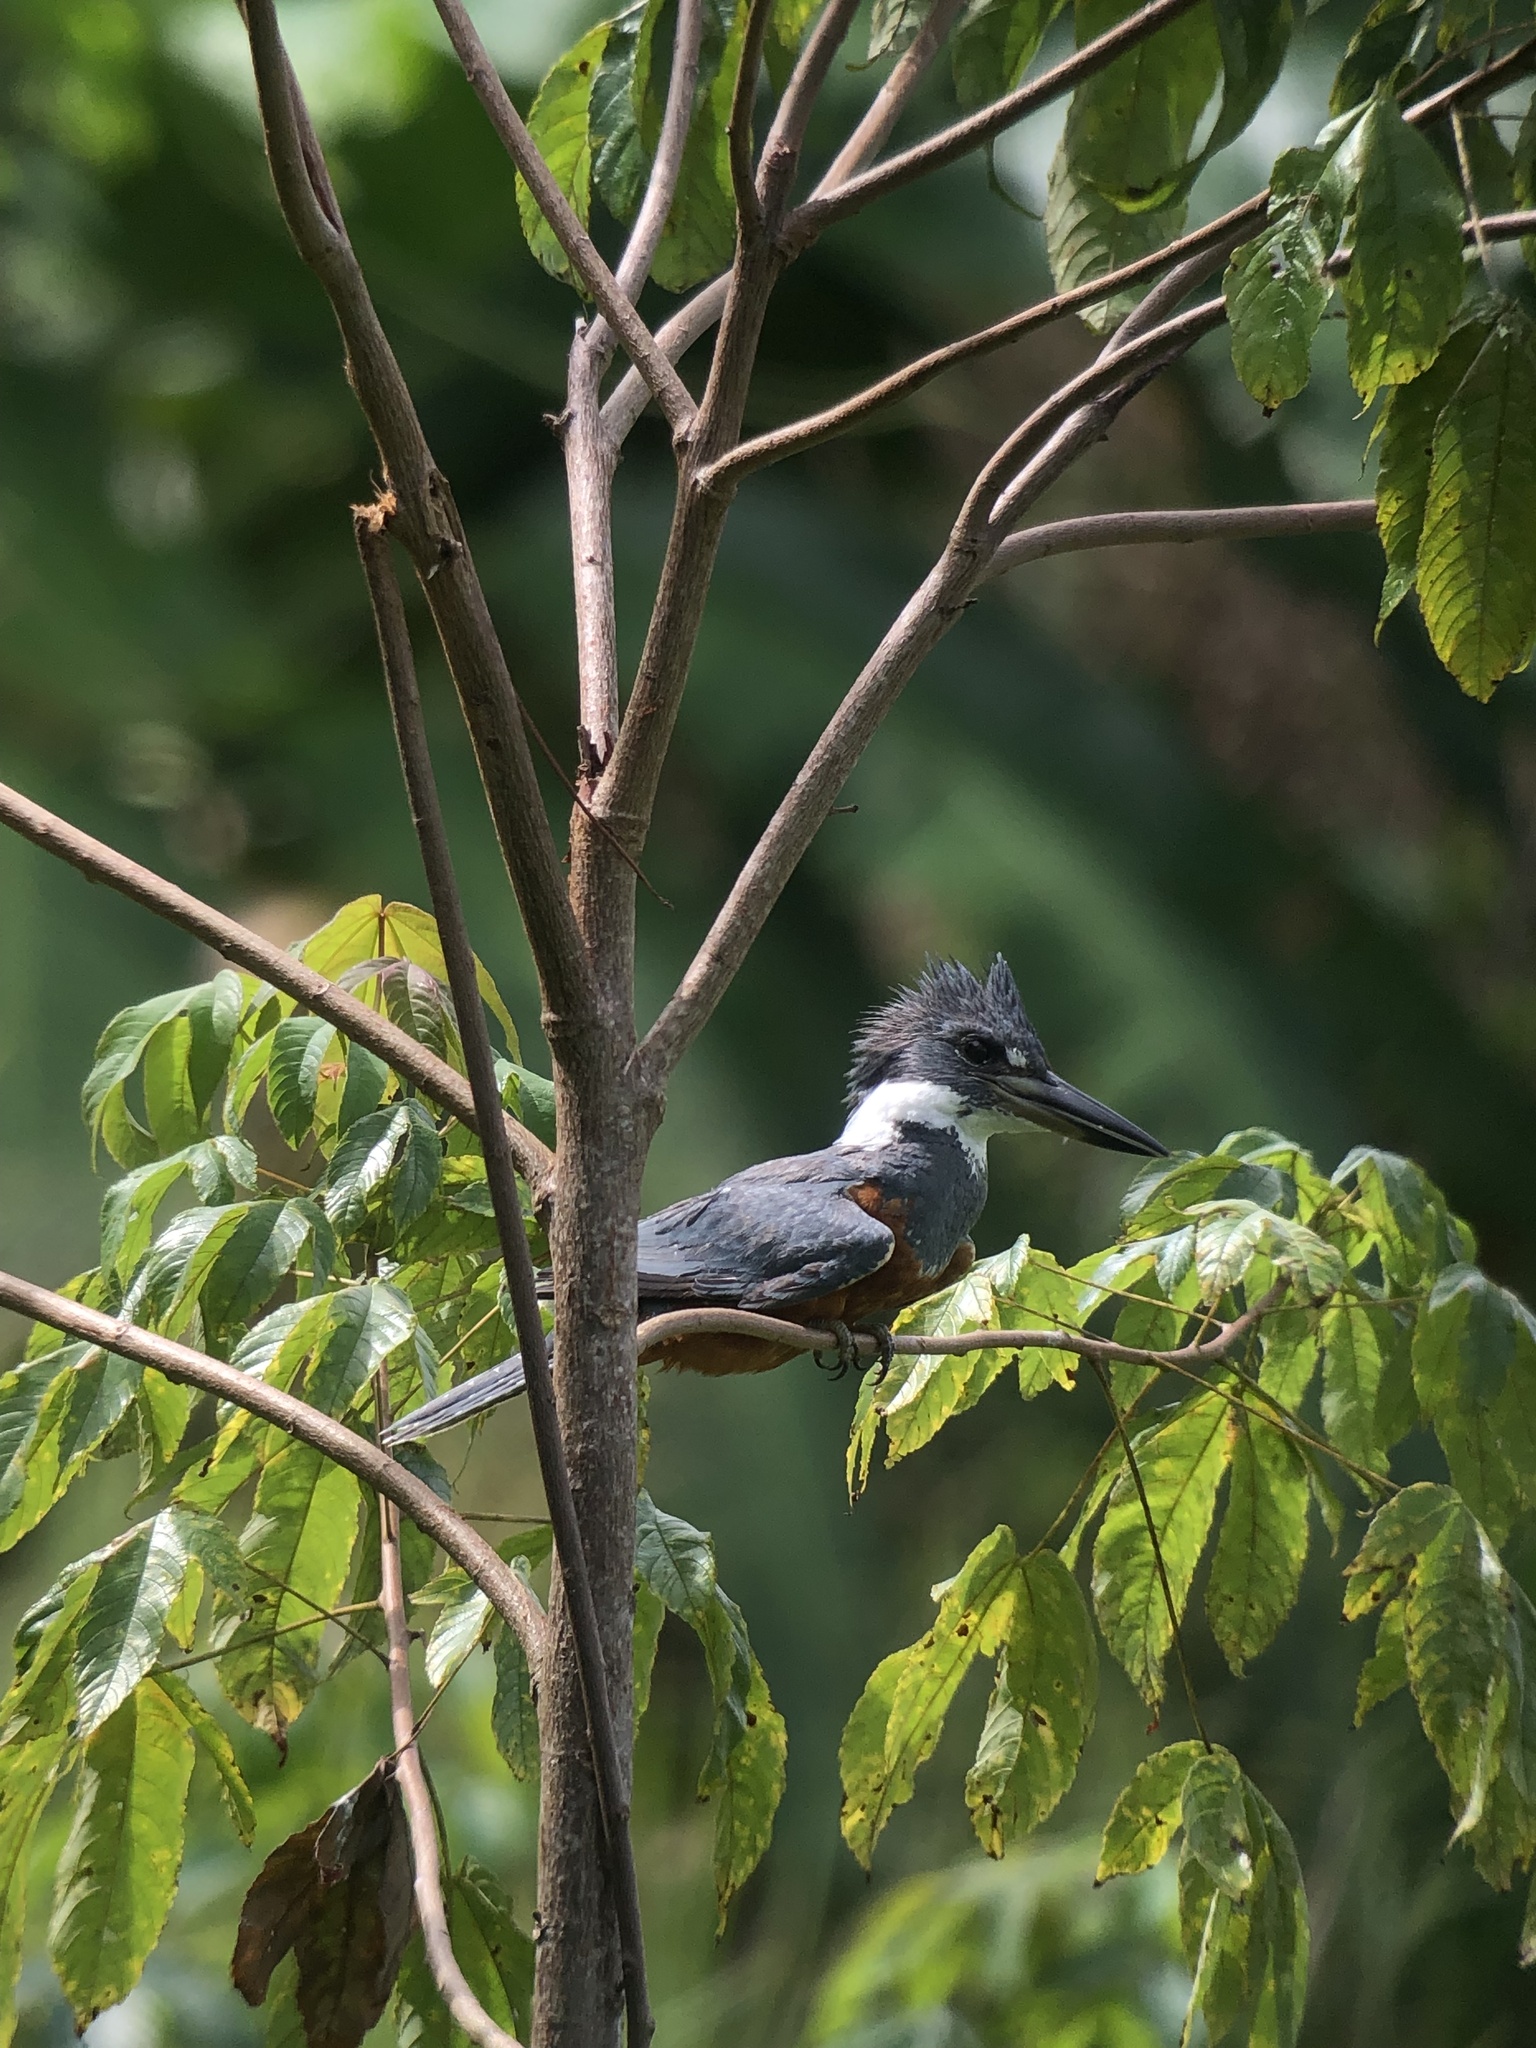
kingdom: Animalia
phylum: Chordata
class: Aves
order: Coraciiformes
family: Alcedinidae
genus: Megaceryle
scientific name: Megaceryle torquata
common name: Ringed kingfisher
